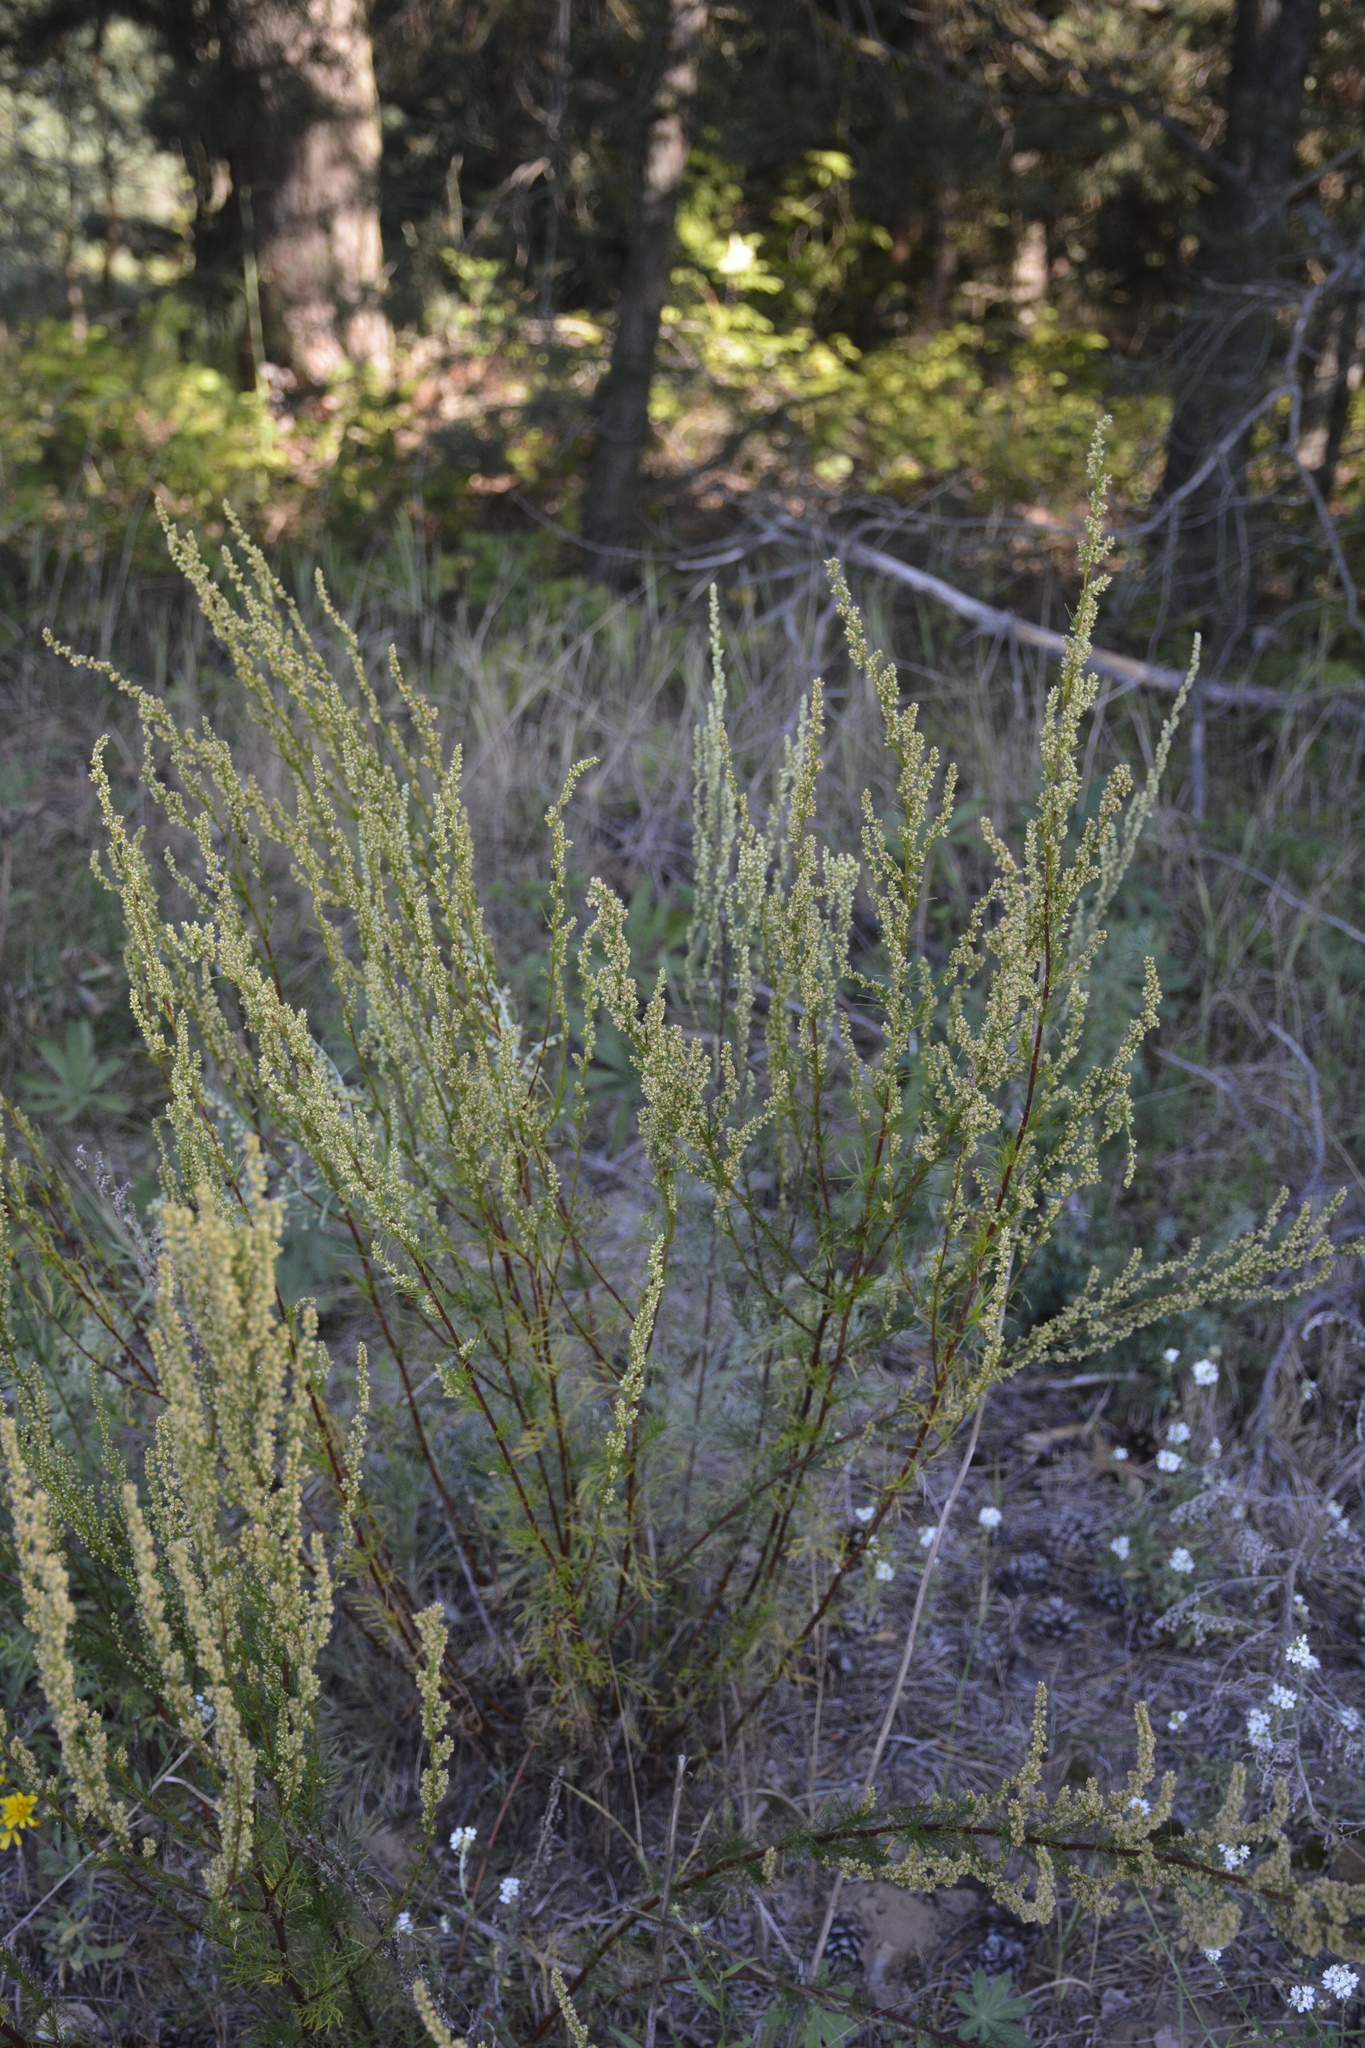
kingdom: Plantae
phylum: Tracheophyta
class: Magnoliopsida
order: Asterales
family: Asteraceae
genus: Artemisia
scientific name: Artemisia campestris
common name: Field wormwood
